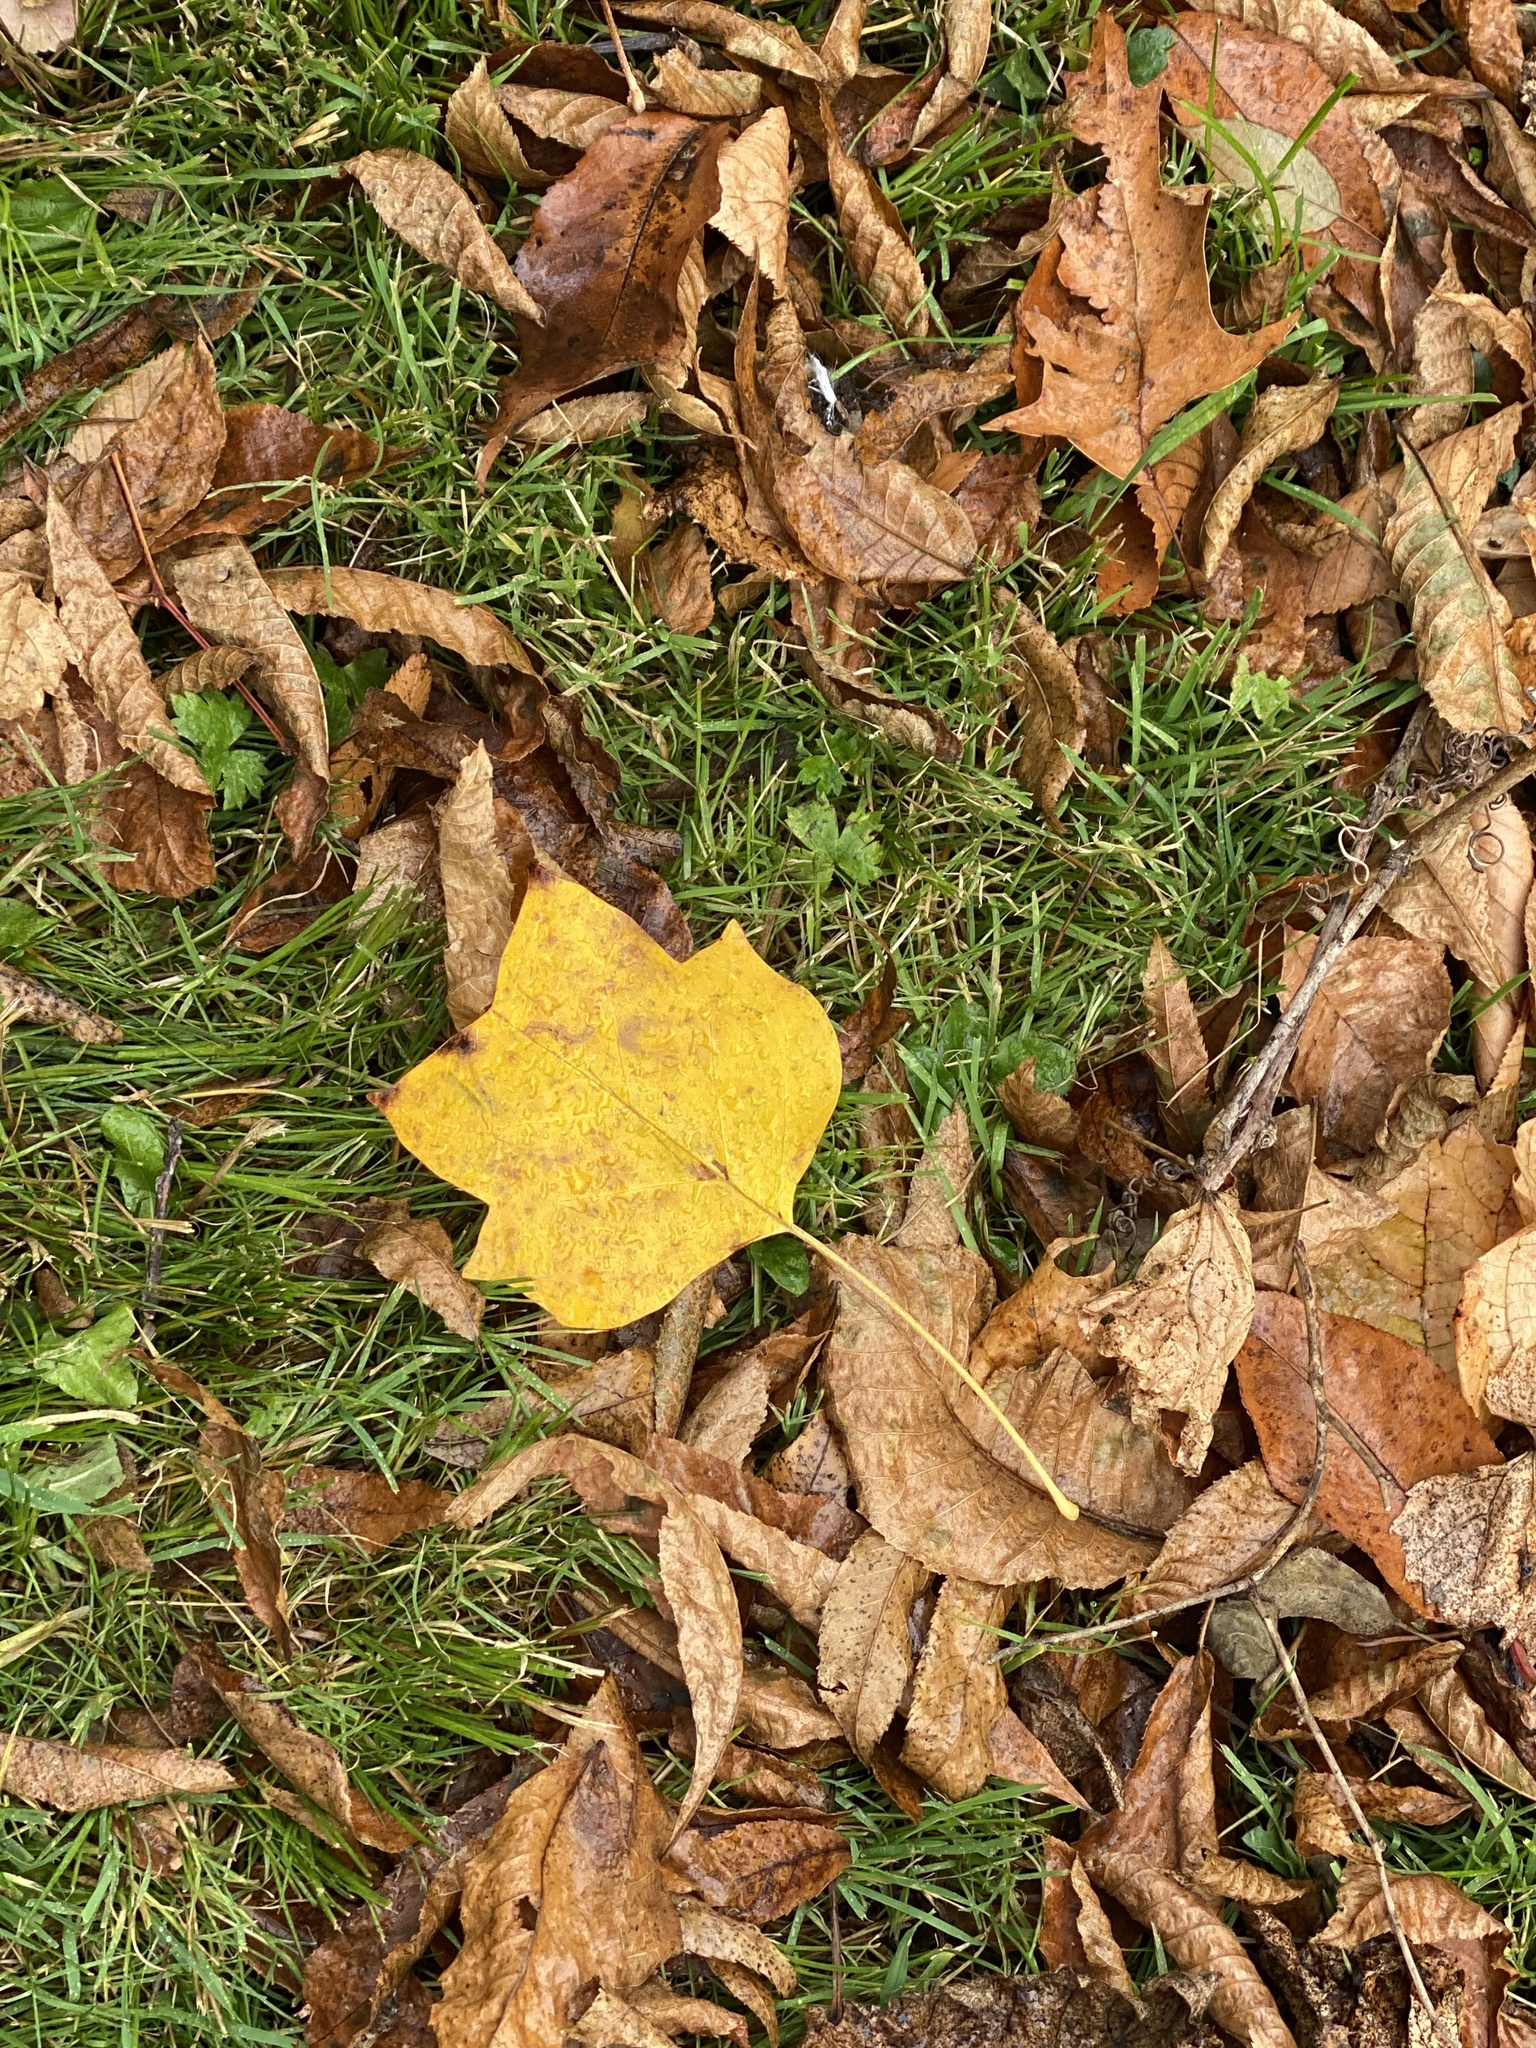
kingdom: Plantae
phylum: Tracheophyta
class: Magnoliopsida
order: Magnoliales
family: Magnoliaceae
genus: Liriodendron
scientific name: Liriodendron tulipifera
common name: Tulip tree
